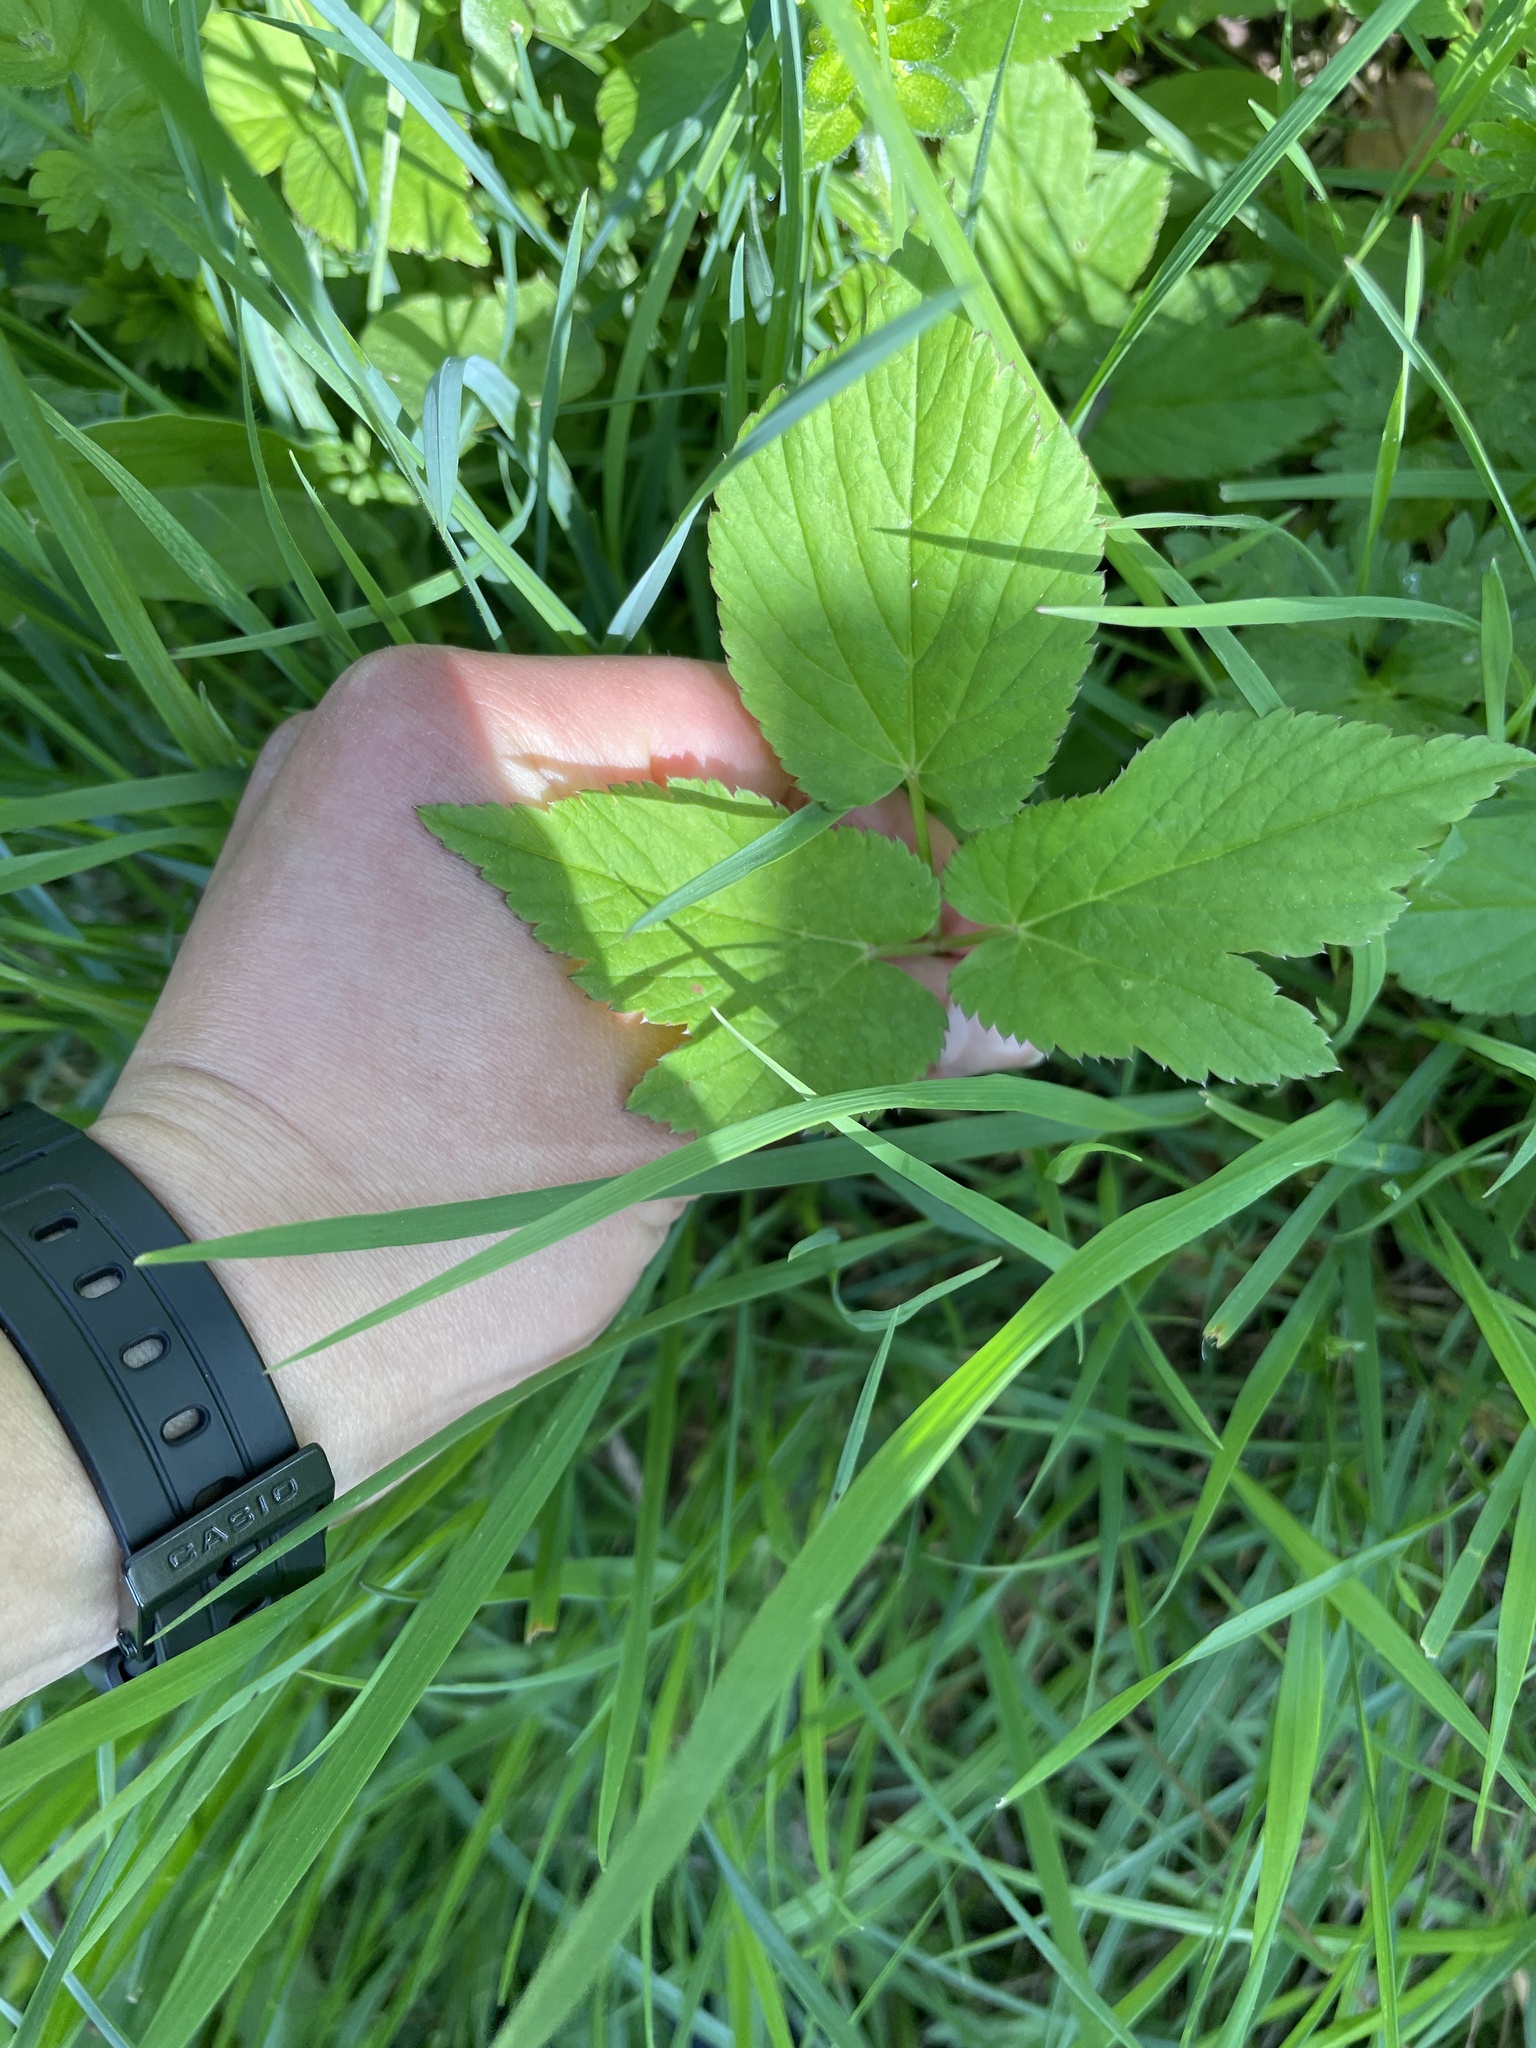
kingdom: Plantae
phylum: Tracheophyta
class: Magnoliopsida
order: Apiales
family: Apiaceae
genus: Aegopodium
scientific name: Aegopodium podagraria
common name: Ground-elder
